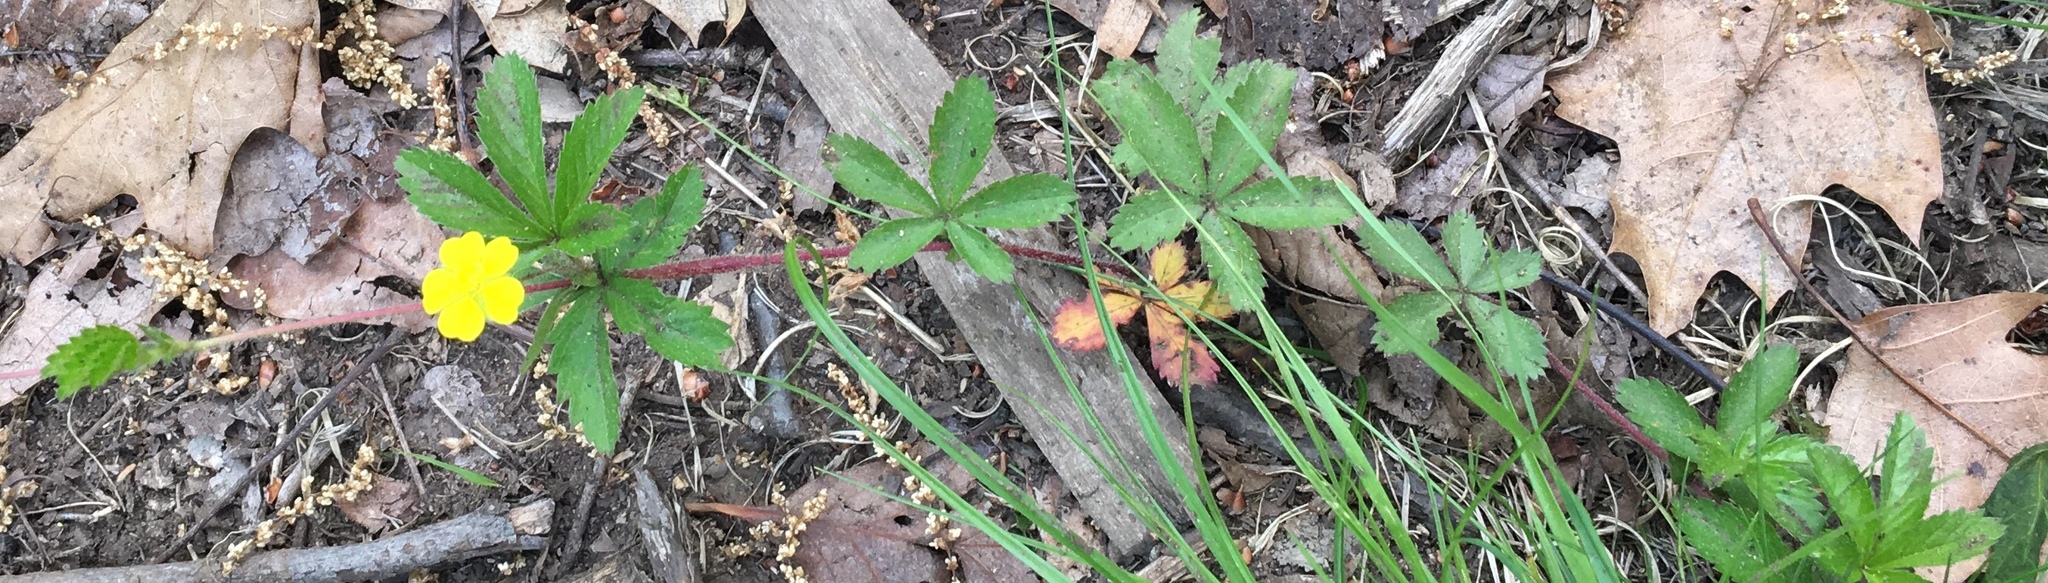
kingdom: Plantae
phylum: Tracheophyta
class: Magnoliopsida
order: Rosales
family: Rosaceae
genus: Potentilla
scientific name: Potentilla simplex
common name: Old field cinquefoil
